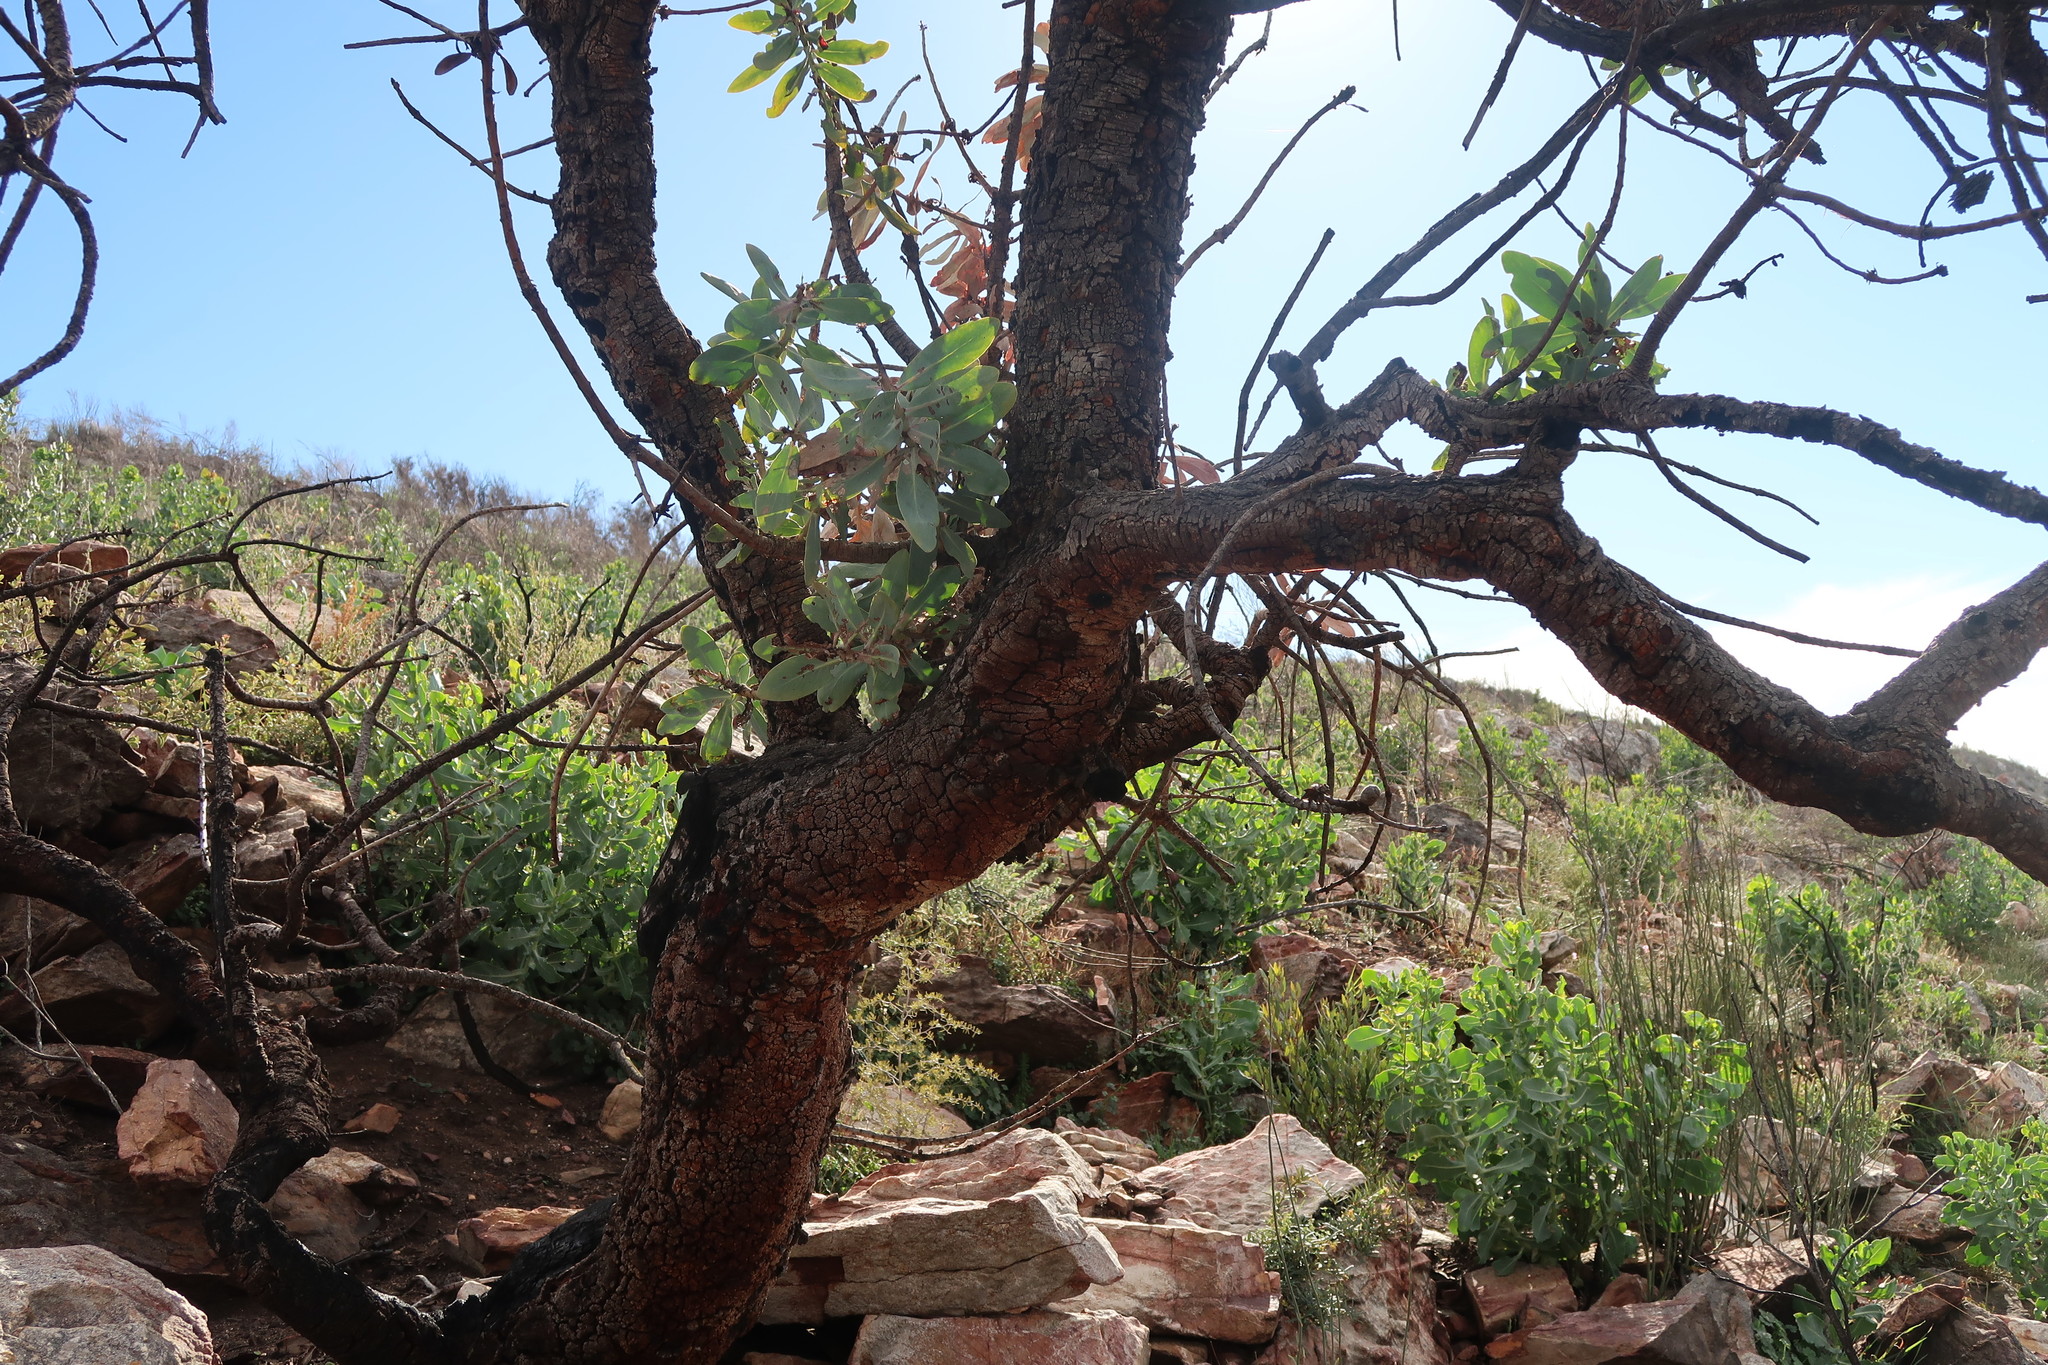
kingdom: Plantae
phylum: Tracheophyta
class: Magnoliopsida
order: Proteales
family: Proteaceae
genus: Protea
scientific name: Protea nitida
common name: Tree protea
